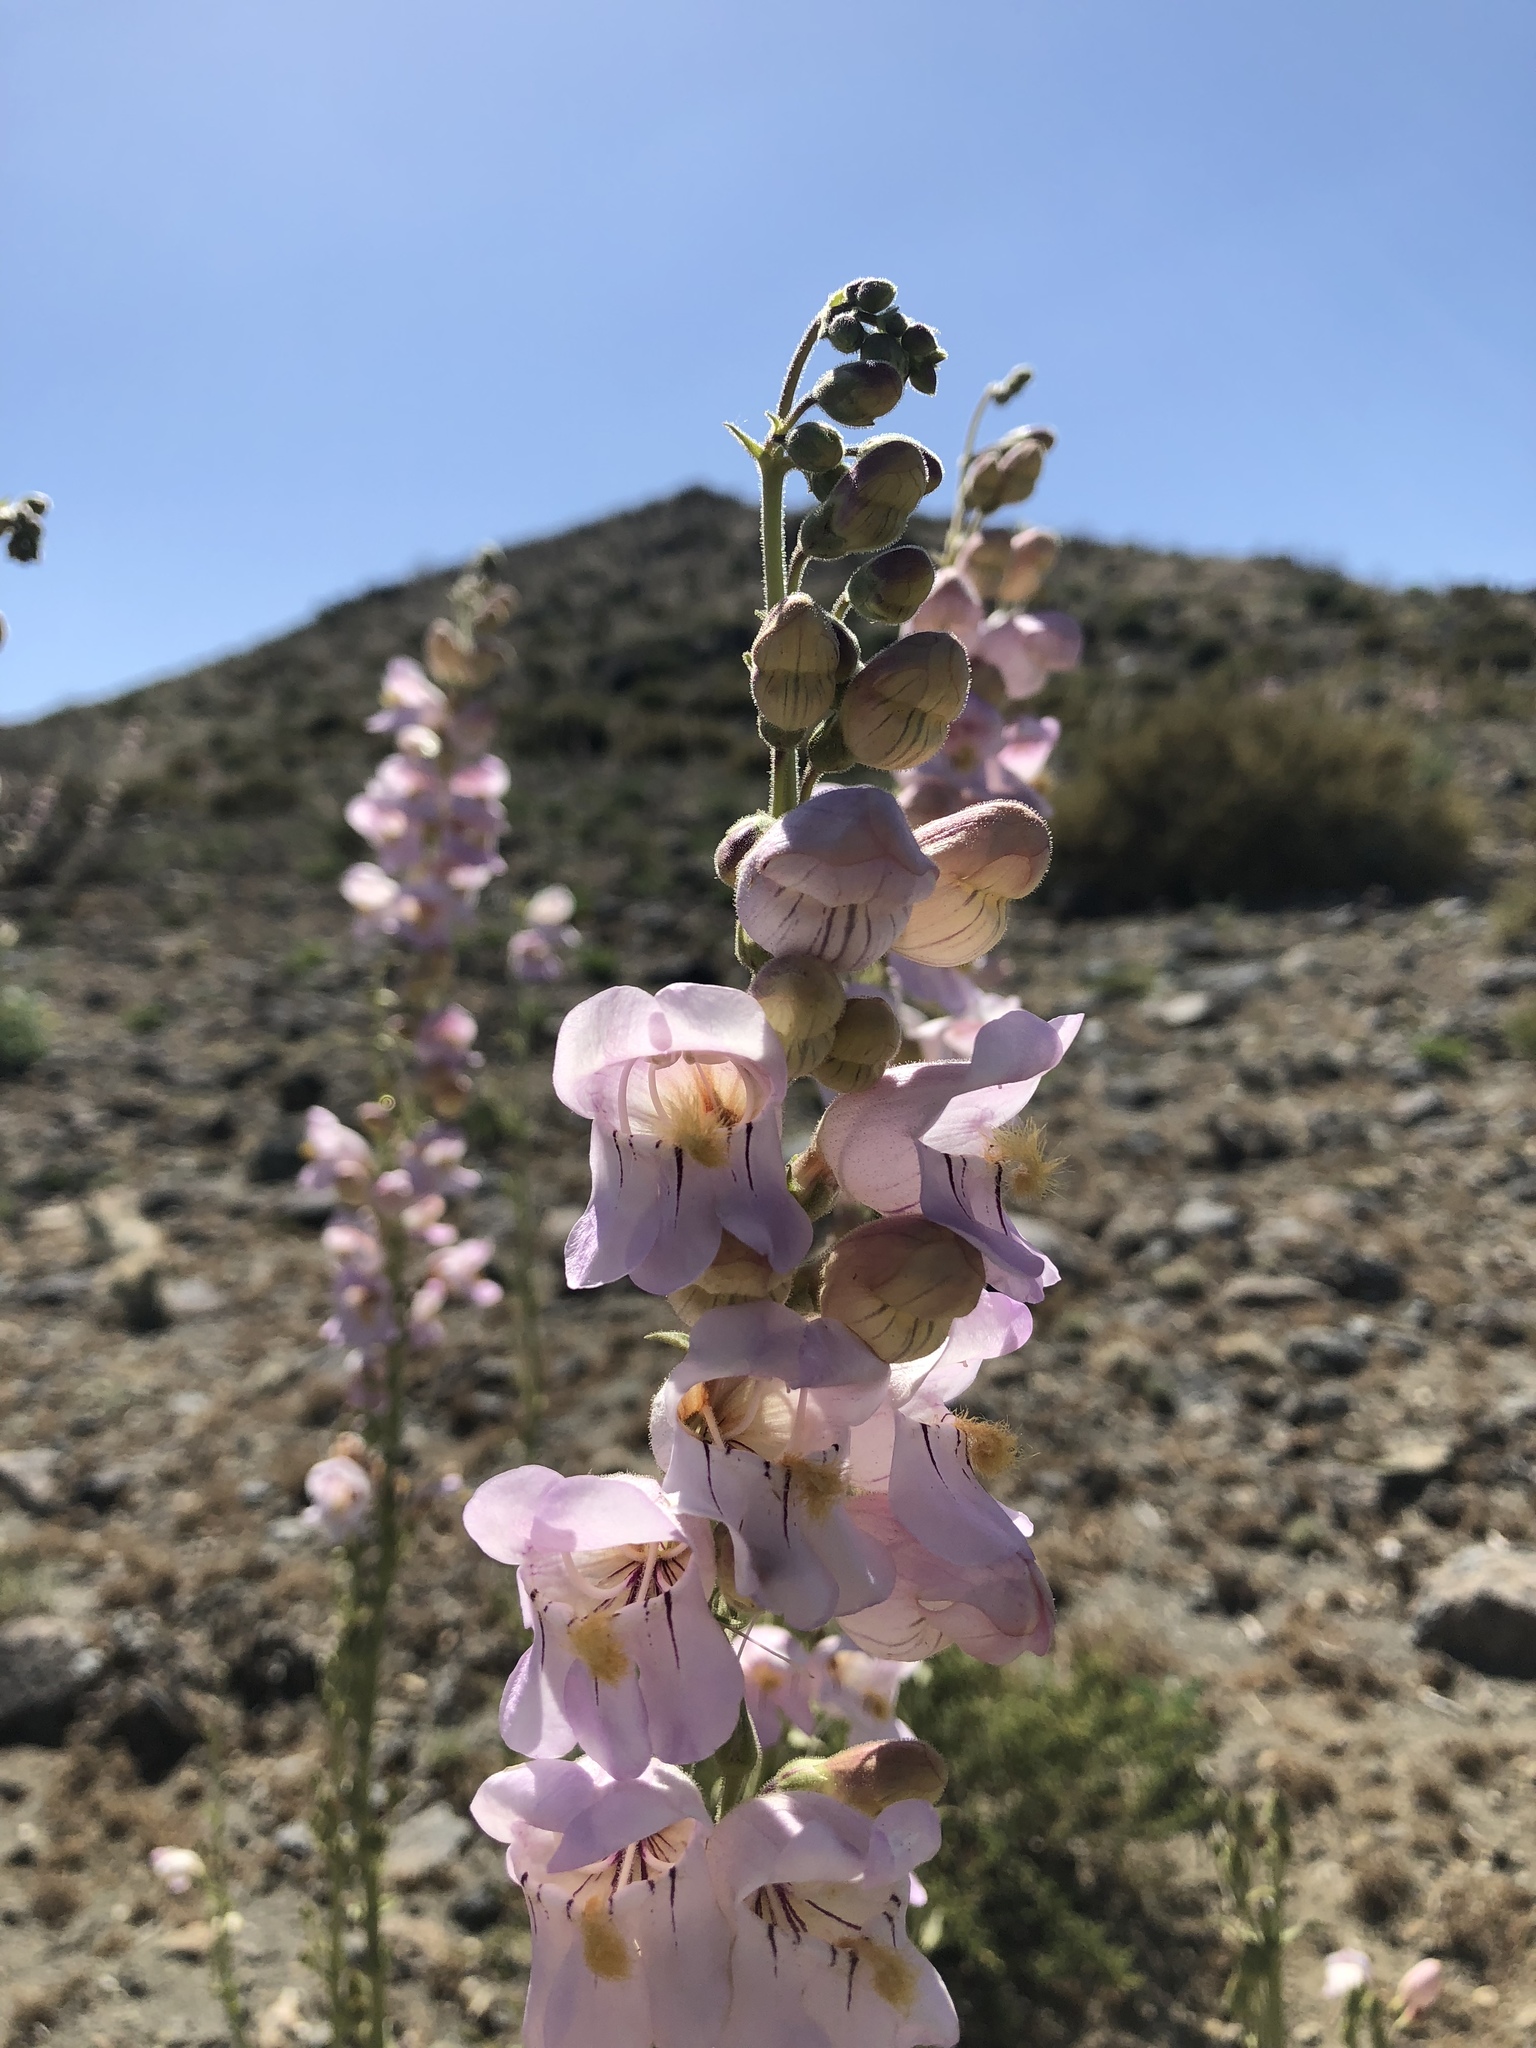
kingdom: Plantae
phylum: Tracheophyta
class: Magnoliopsida
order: Lamiales
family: Plantaginaceae
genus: Penstemon
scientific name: Penstemon palmeri
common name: Palmer penstemon
